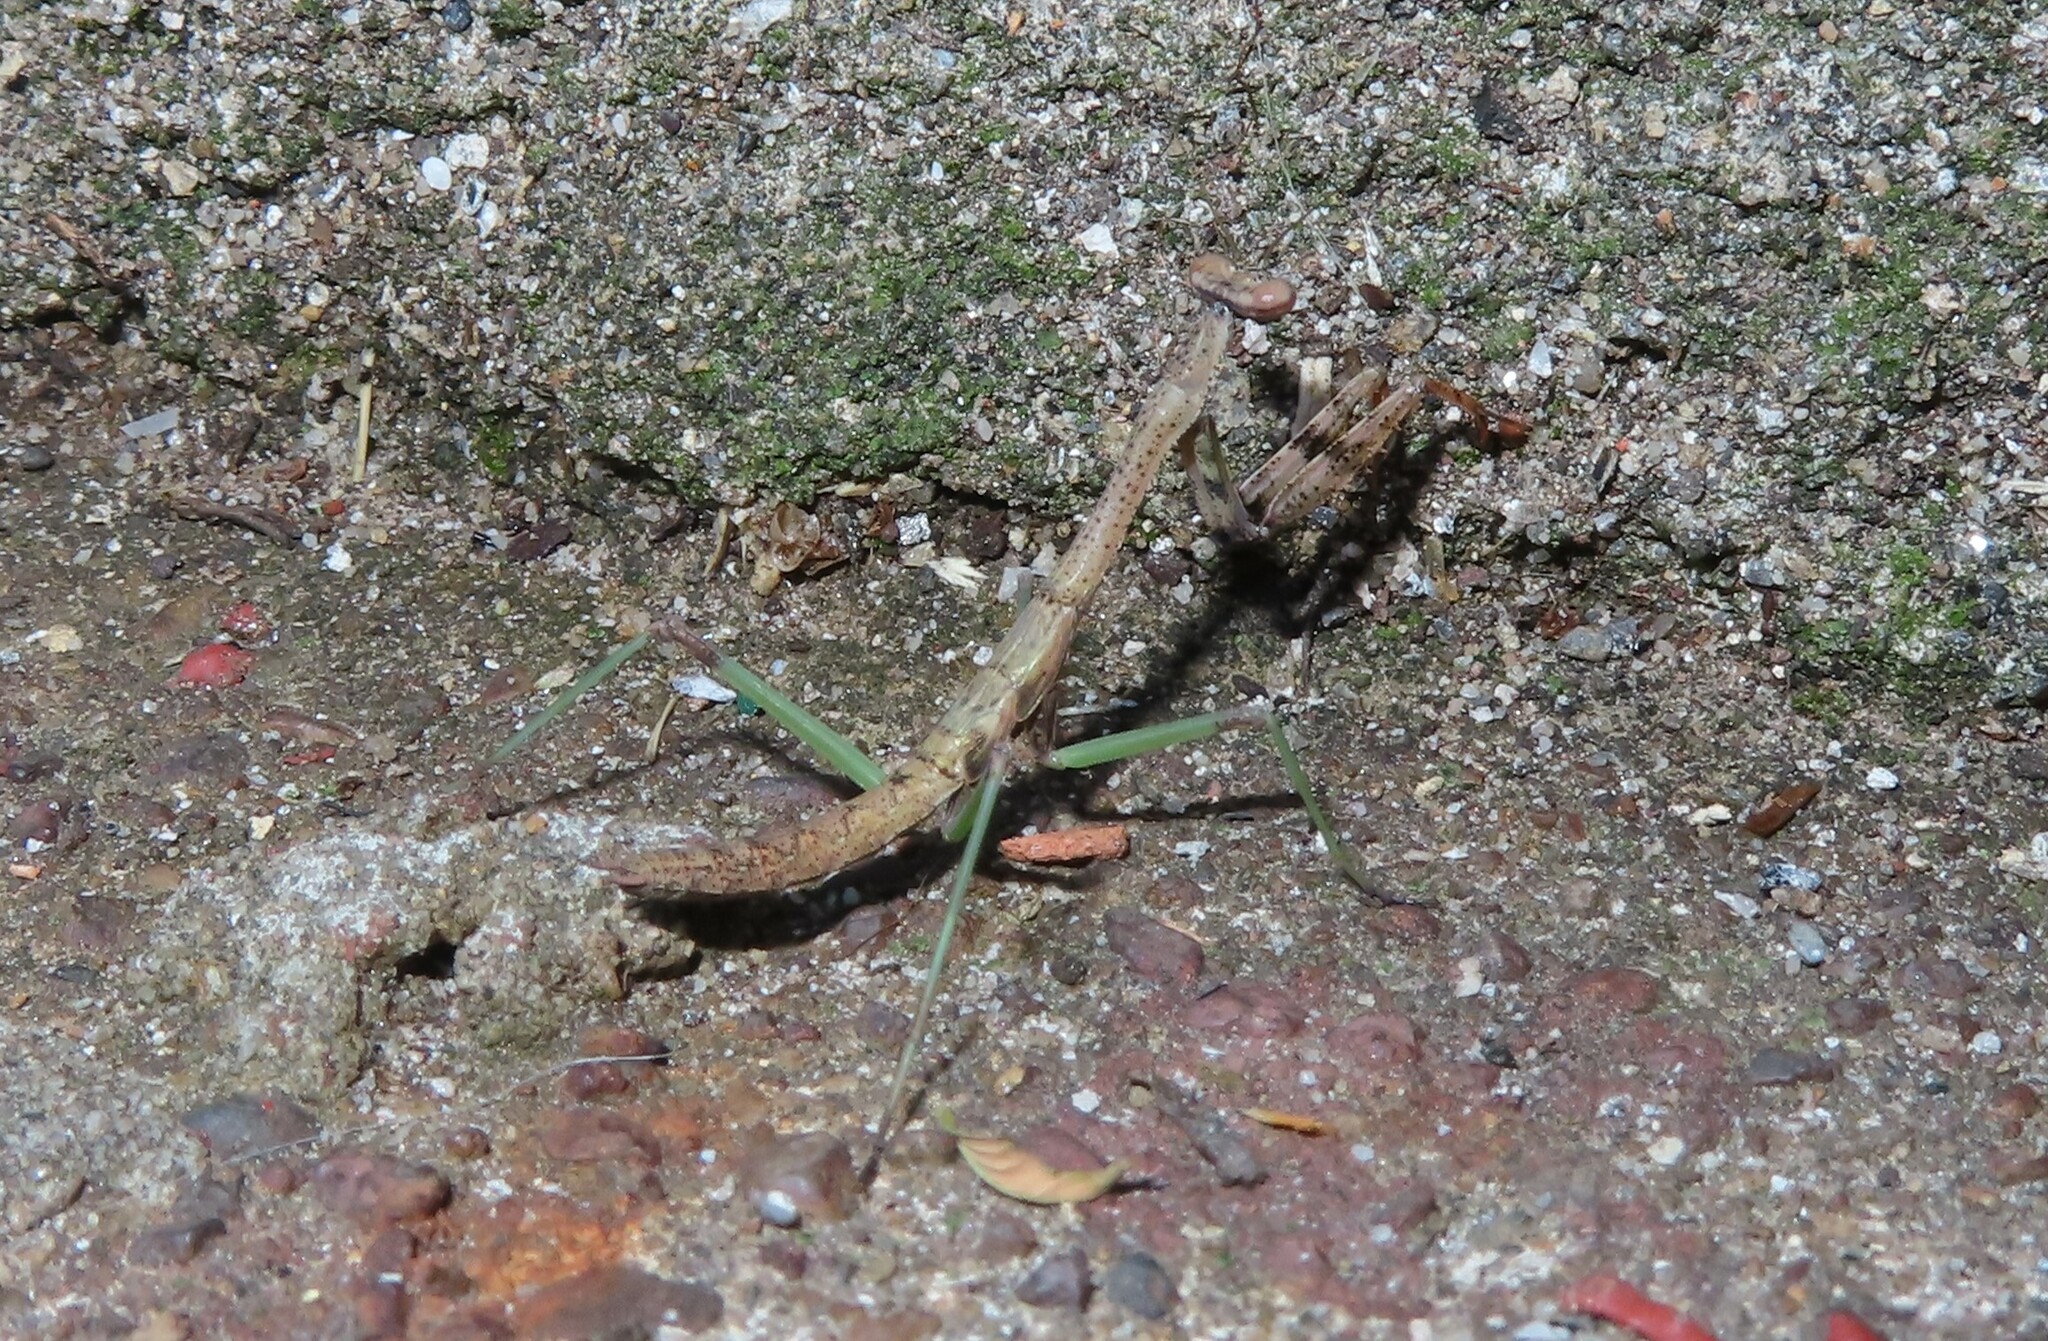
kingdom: Animalia
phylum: Arthropoda
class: Insecta
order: Mantodea
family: Mantidae
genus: Stagmomantis
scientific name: Stagmomantis carolina
